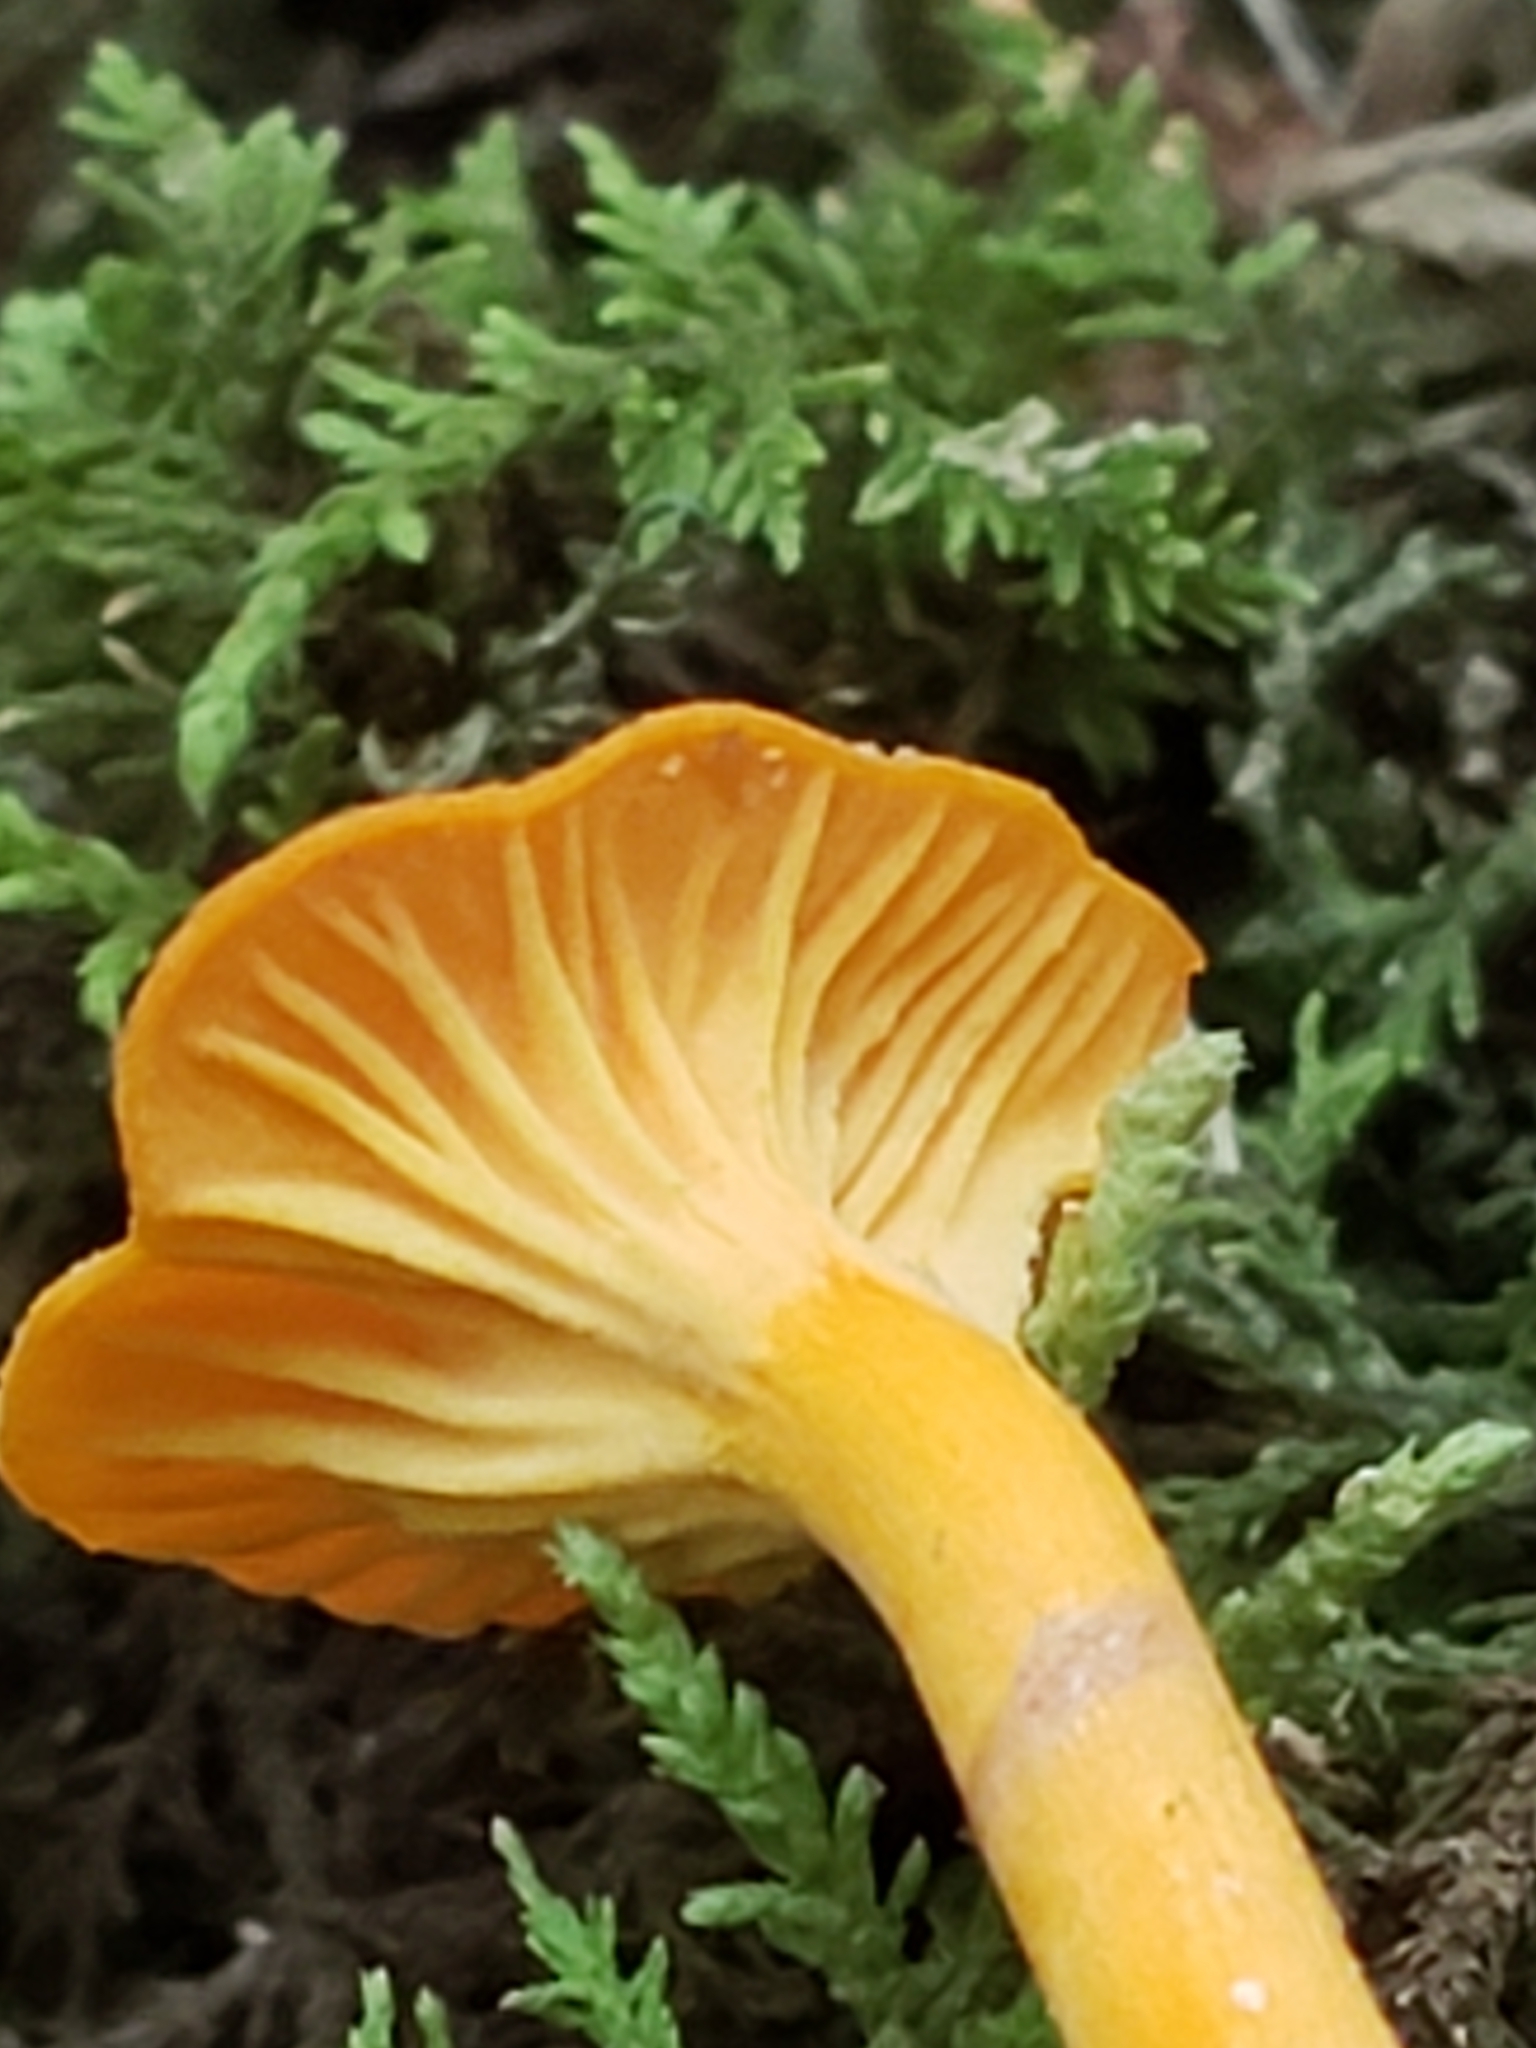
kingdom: Fungi
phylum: Basidiomycota
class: Agaricomycetes
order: Cantharellales
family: Hydnaceae
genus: Cantharellus
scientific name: Cantharellus minor
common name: Small chanterelle
